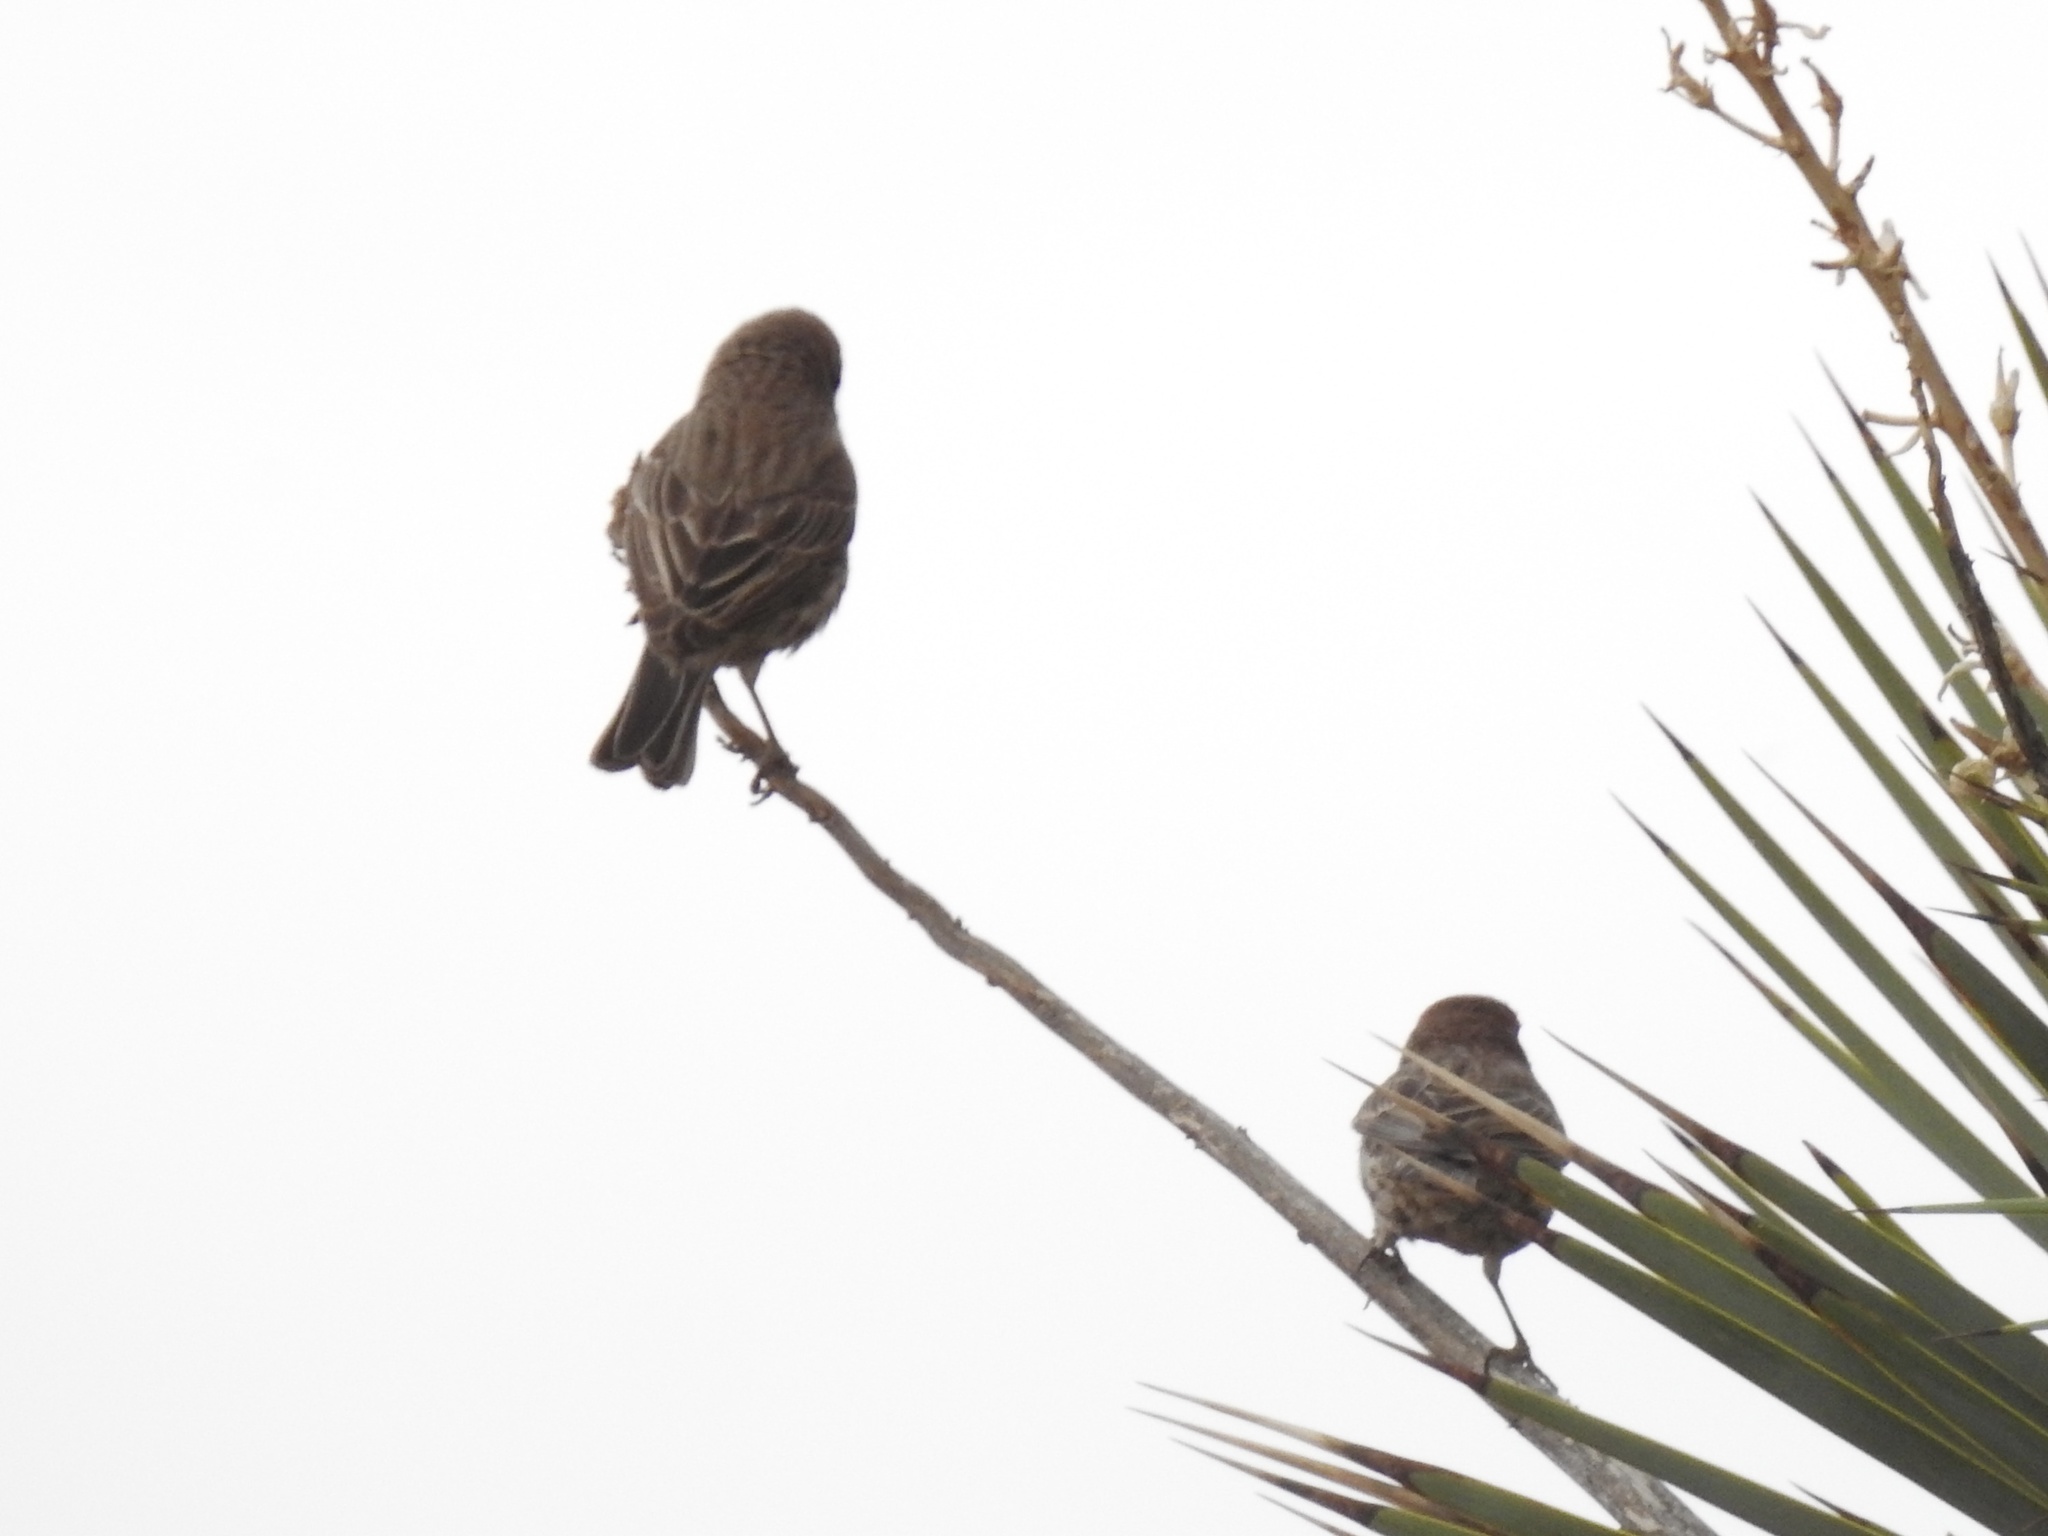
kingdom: Animalia
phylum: Chordata
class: Aves
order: Passeriformes
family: Fringillidae
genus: Haemorhous
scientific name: Haemorhous mexicanus
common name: House finch
